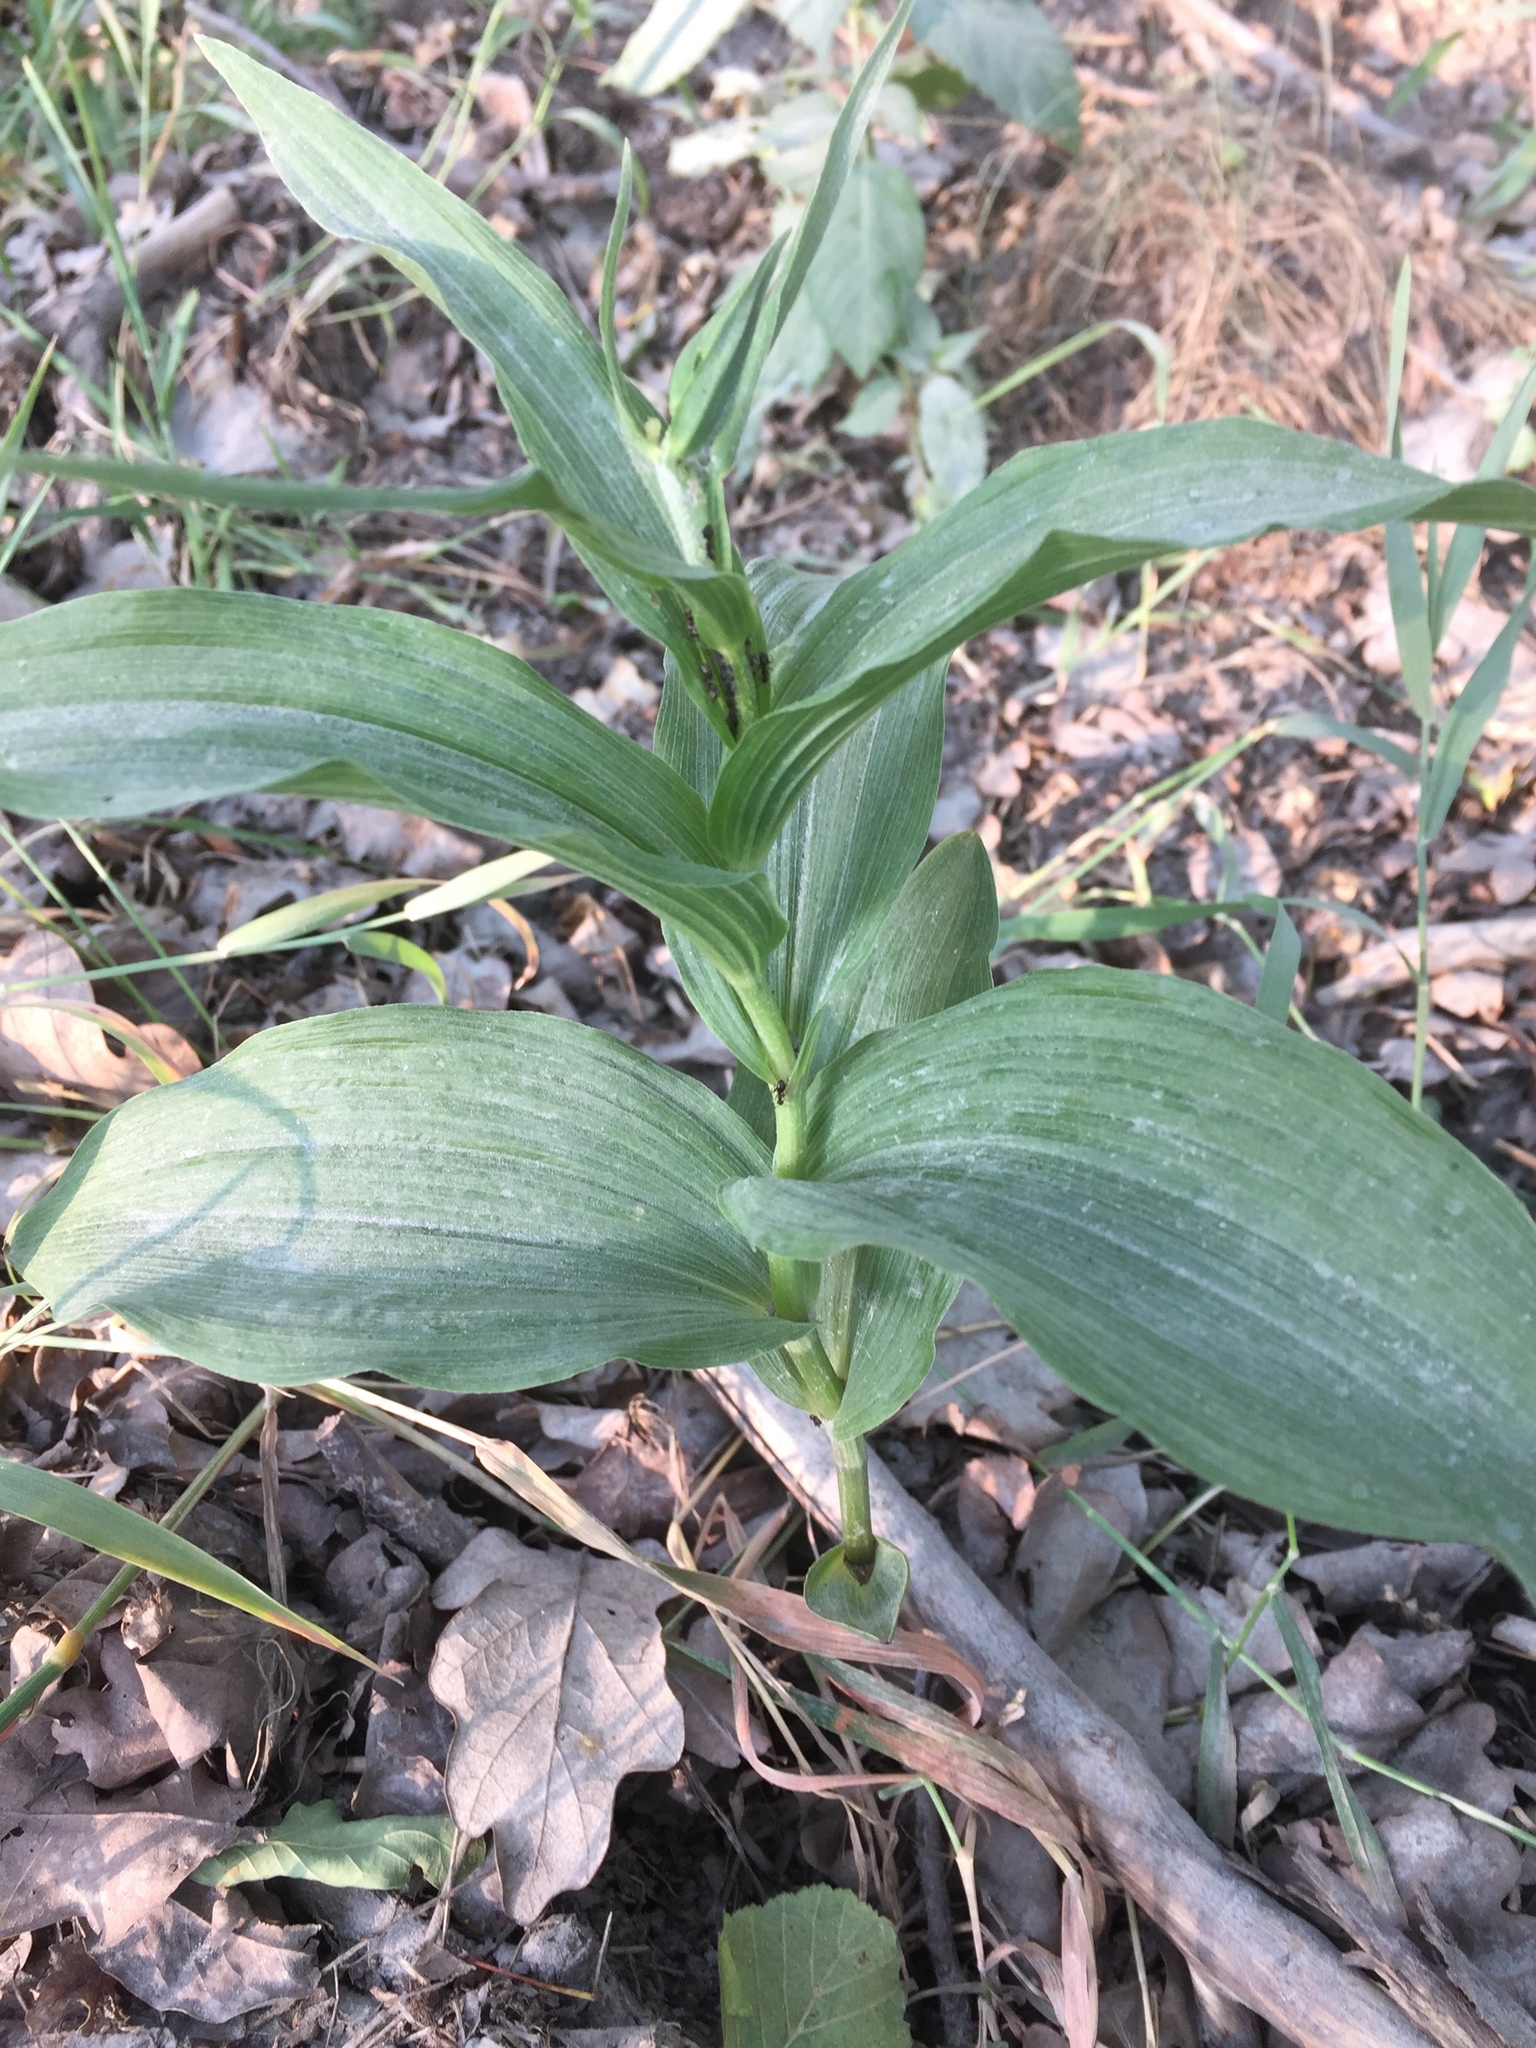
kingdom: Plantae
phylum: Tracheophyta
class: Liliopsida
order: Asparagales
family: Orchidaceae
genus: Epipactis
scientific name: Epipactis helleborine
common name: Broad-leaved helleborine
